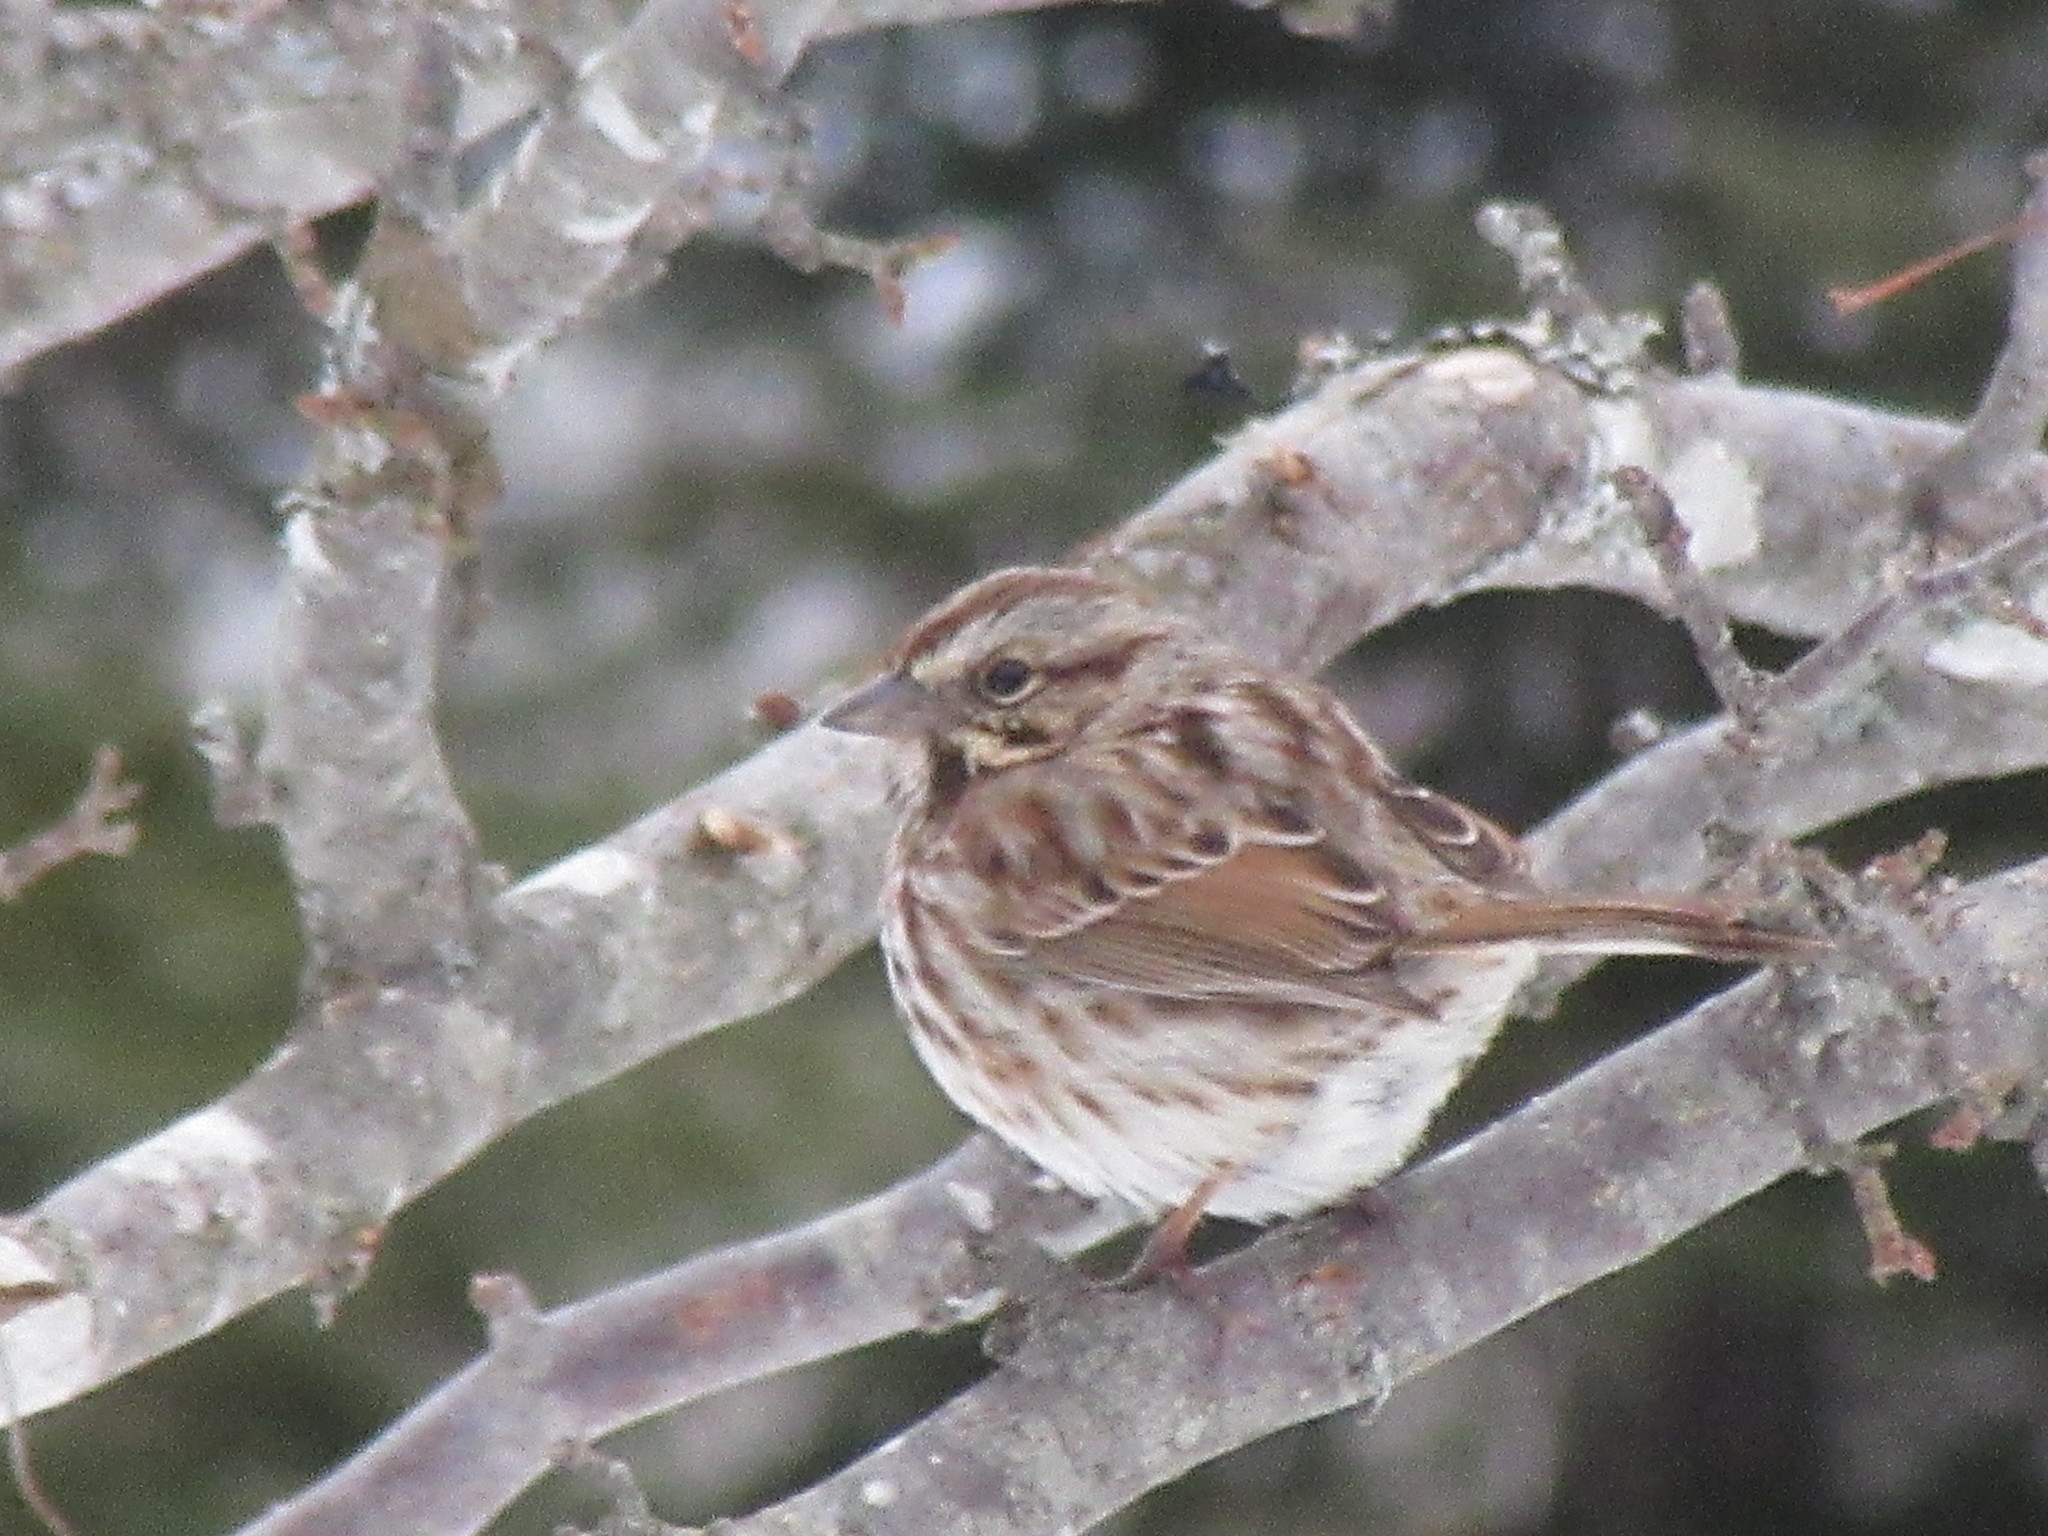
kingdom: Animalia
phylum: Chordata
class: Aves
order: Passeriformes
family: Passerellidae
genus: Melospiza
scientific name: Melospiza melodia
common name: Song sparrow
